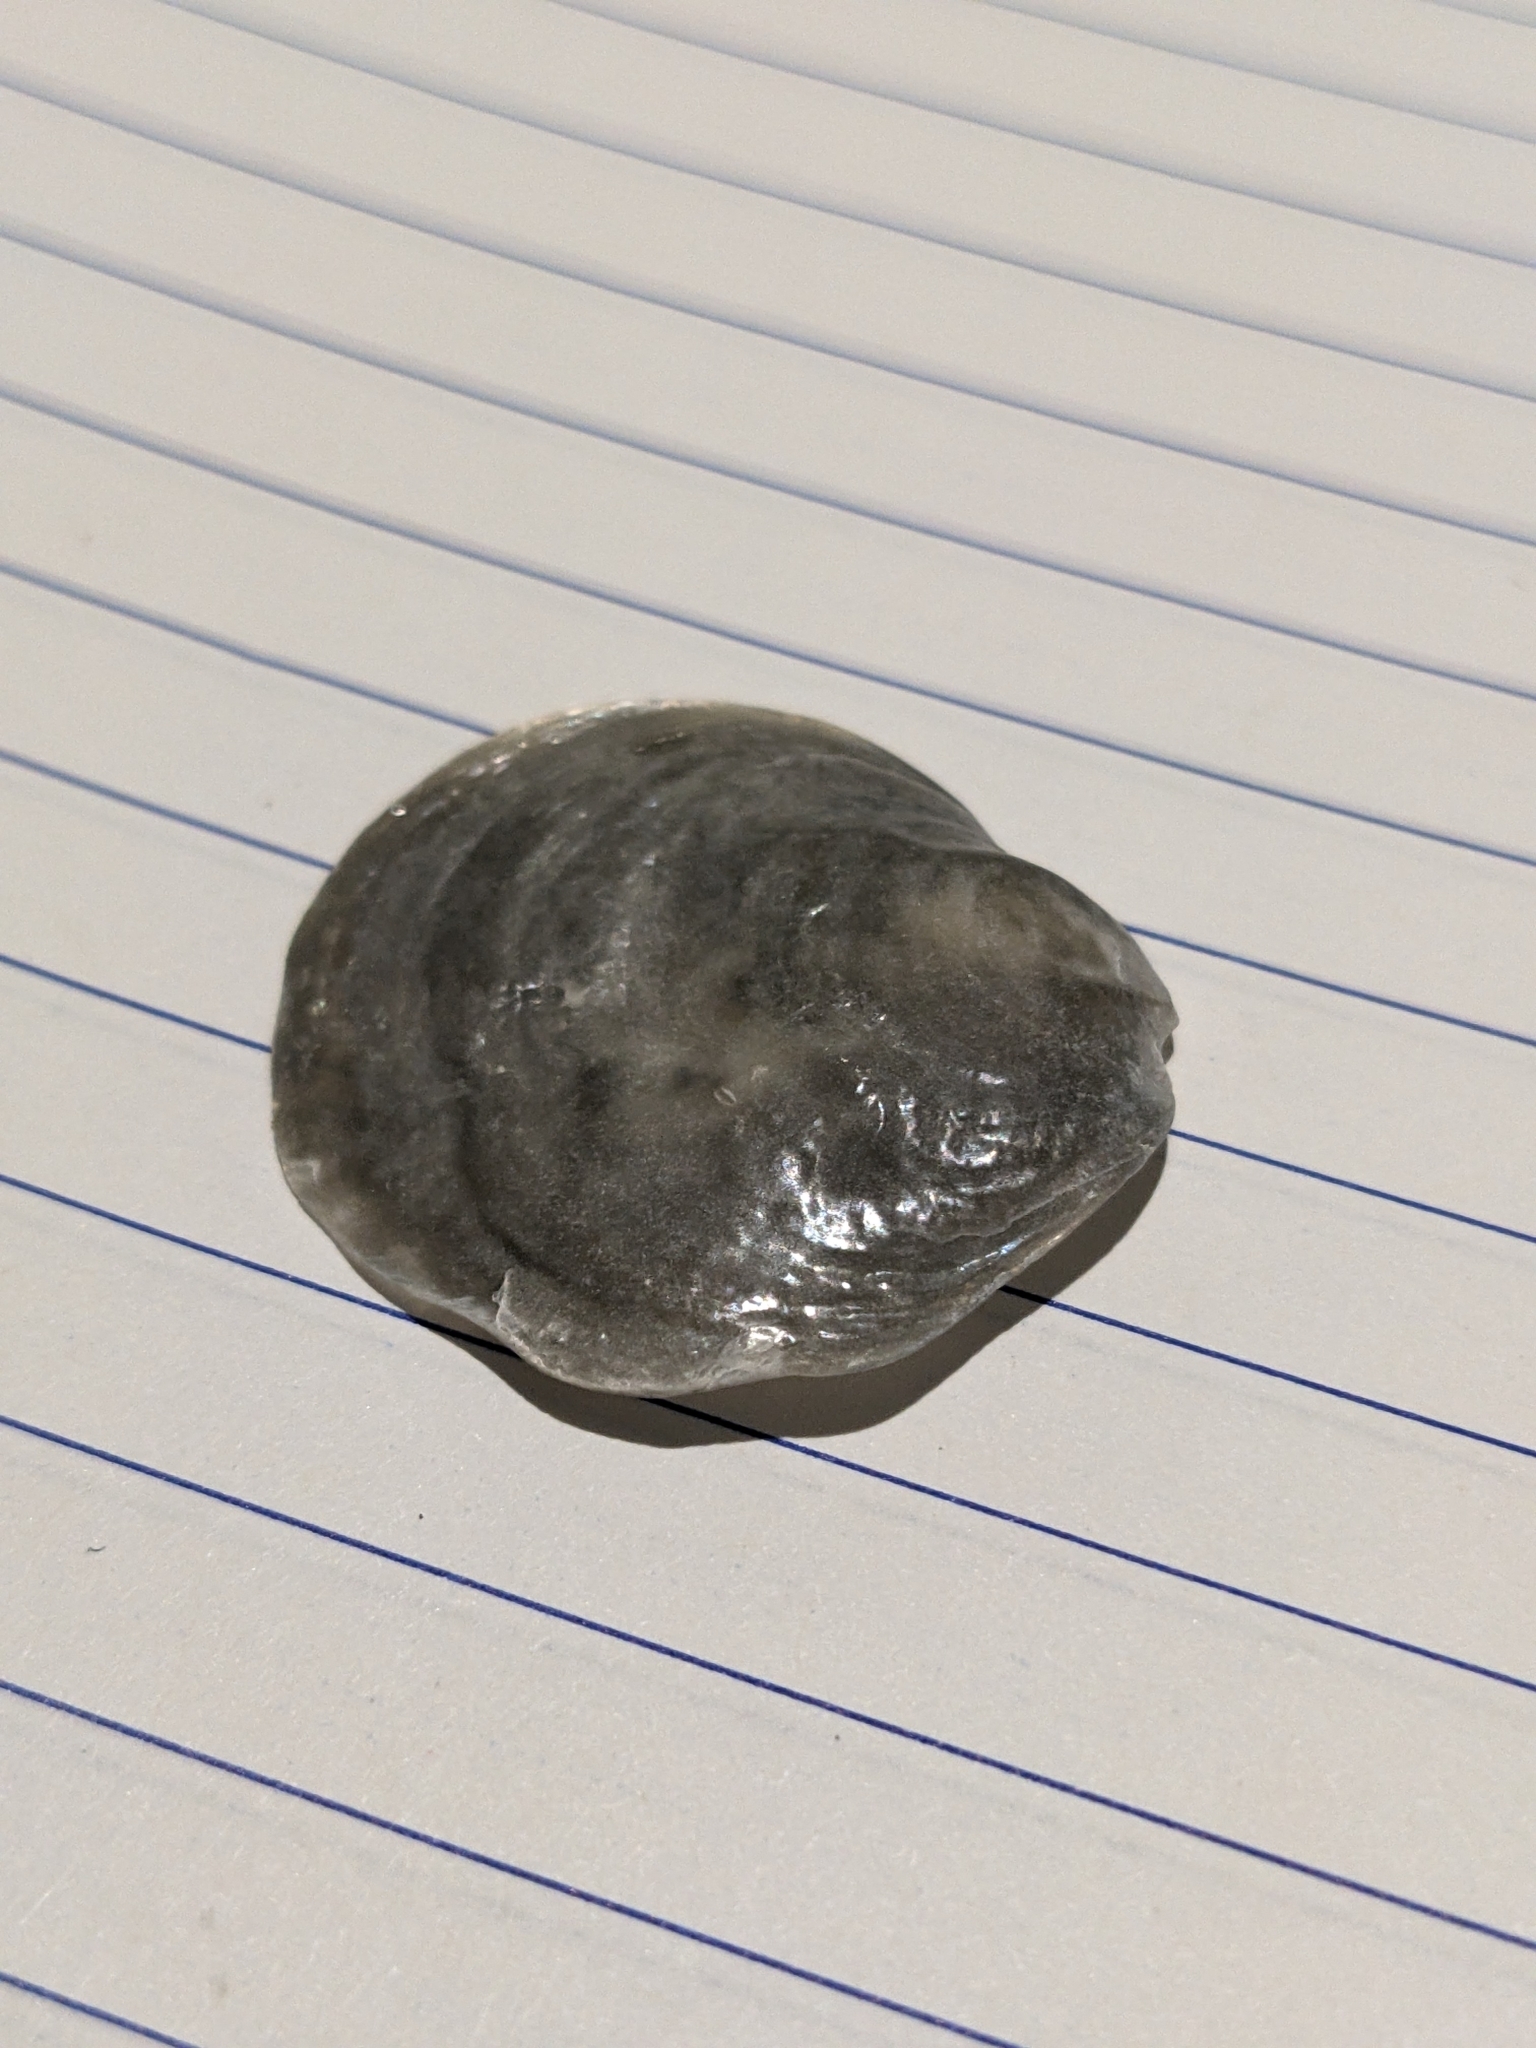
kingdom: Animalia
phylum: Mollusca
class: Bivalvia
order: Pectinida
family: Anomiidae
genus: Anomia
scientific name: Anomia simplex
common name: Common jingle shell
